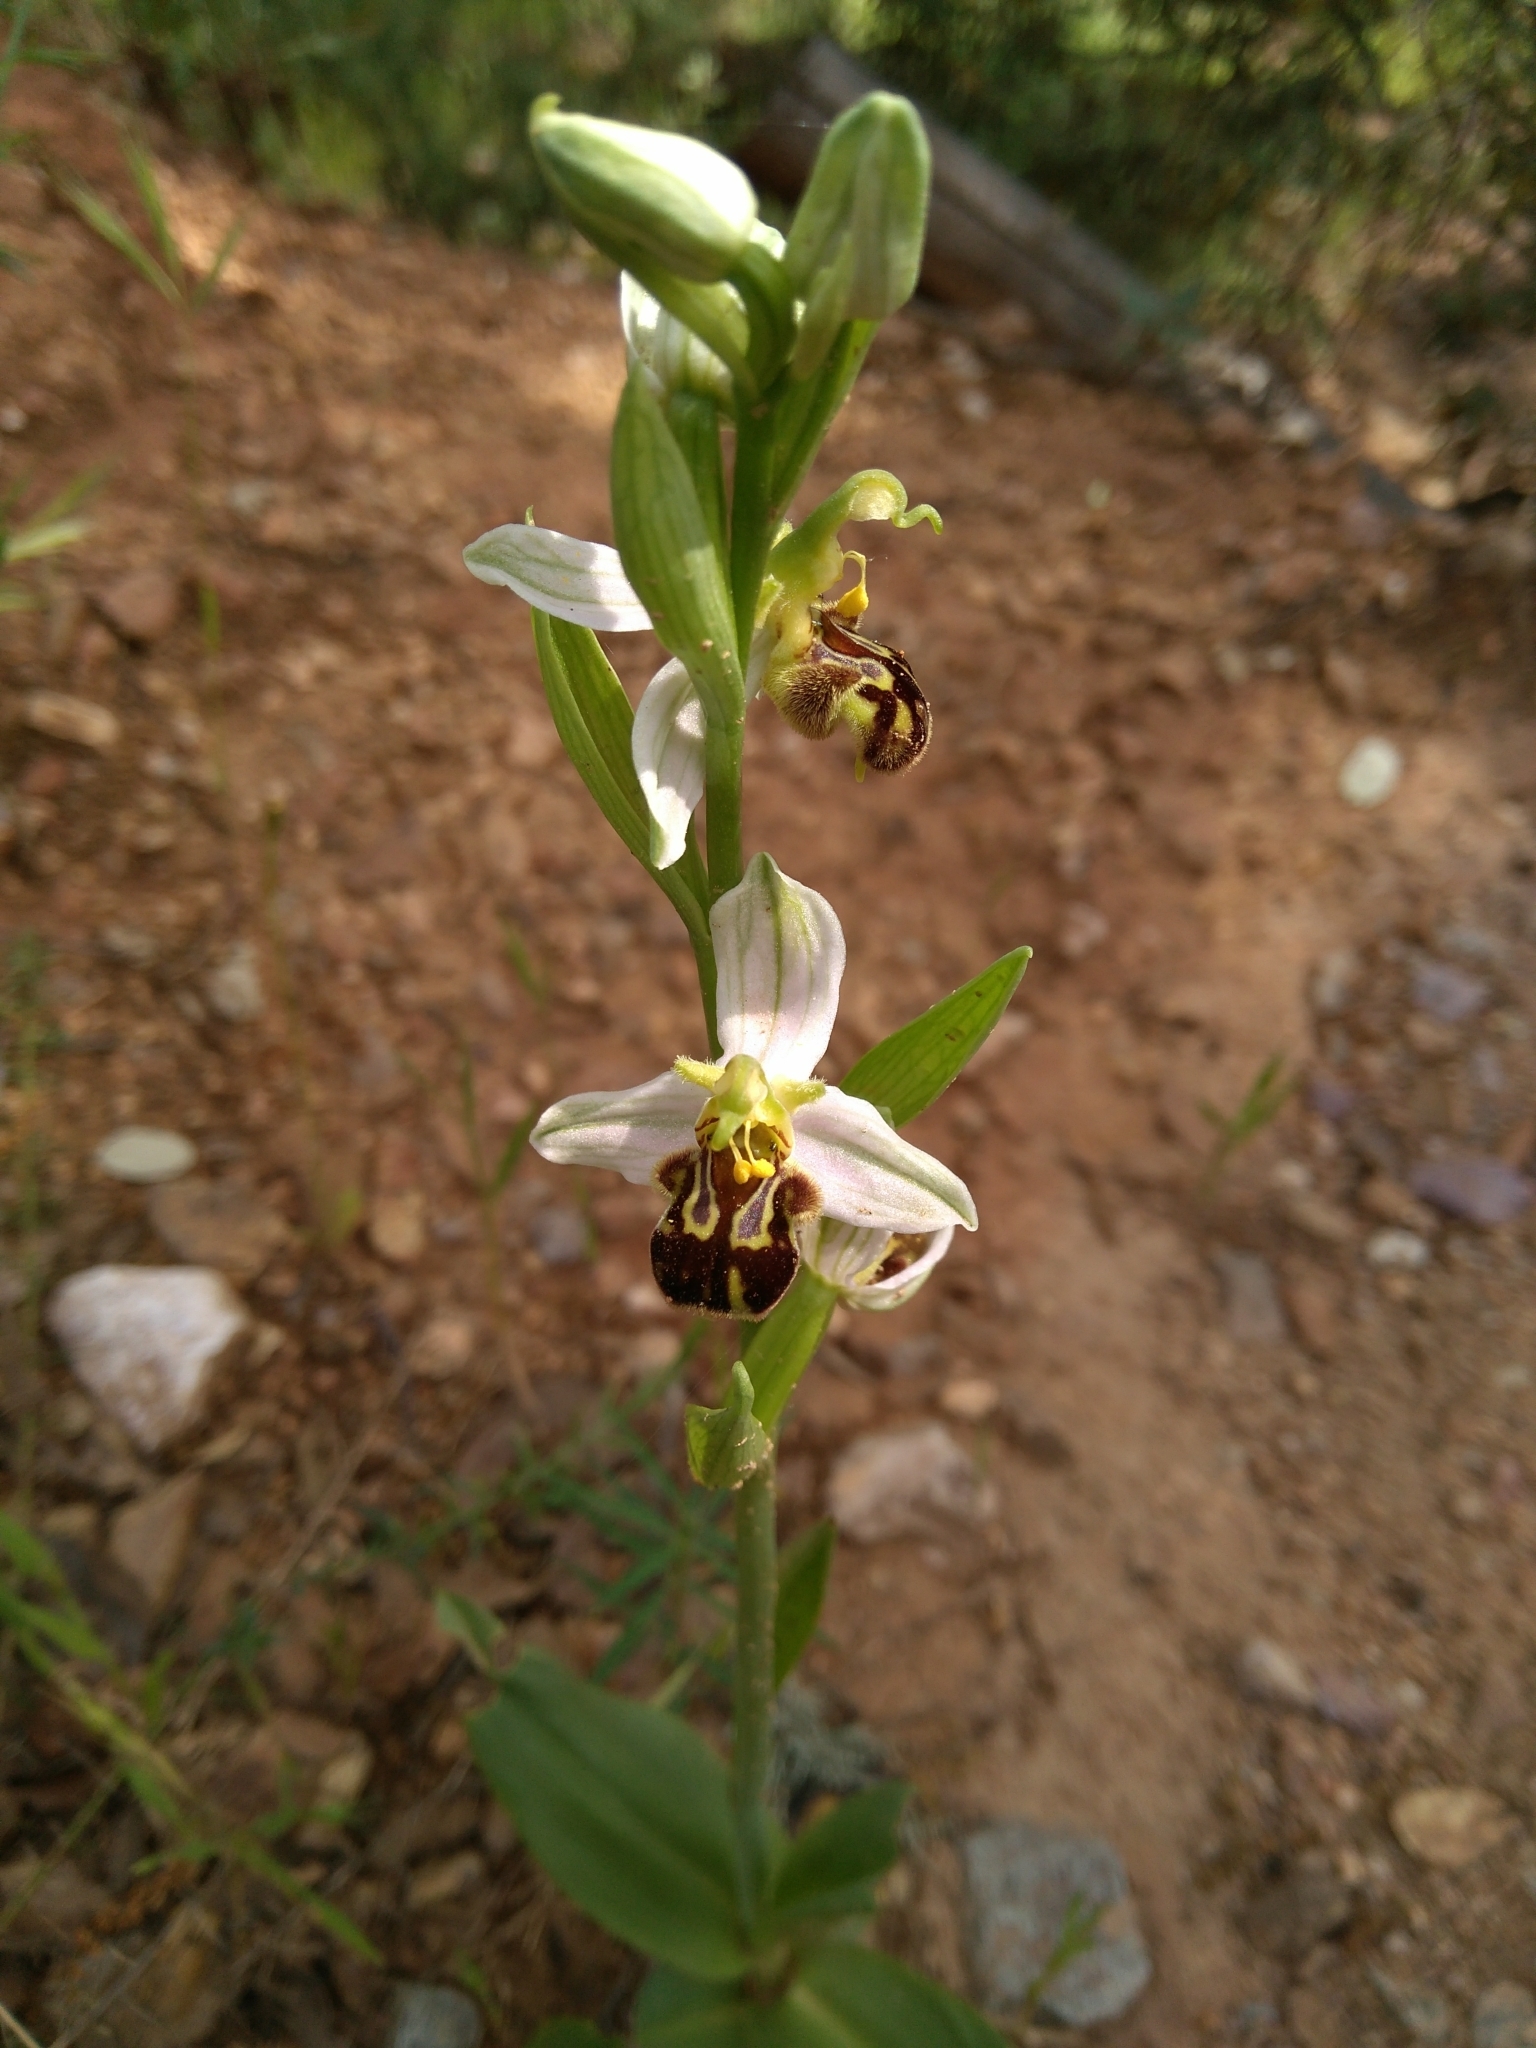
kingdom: Plantae
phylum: Tracheophyta
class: Liliopsida
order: Asparagales
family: Orchidaceae
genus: Ophrys
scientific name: Ophrys apifera
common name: Bee orchid
